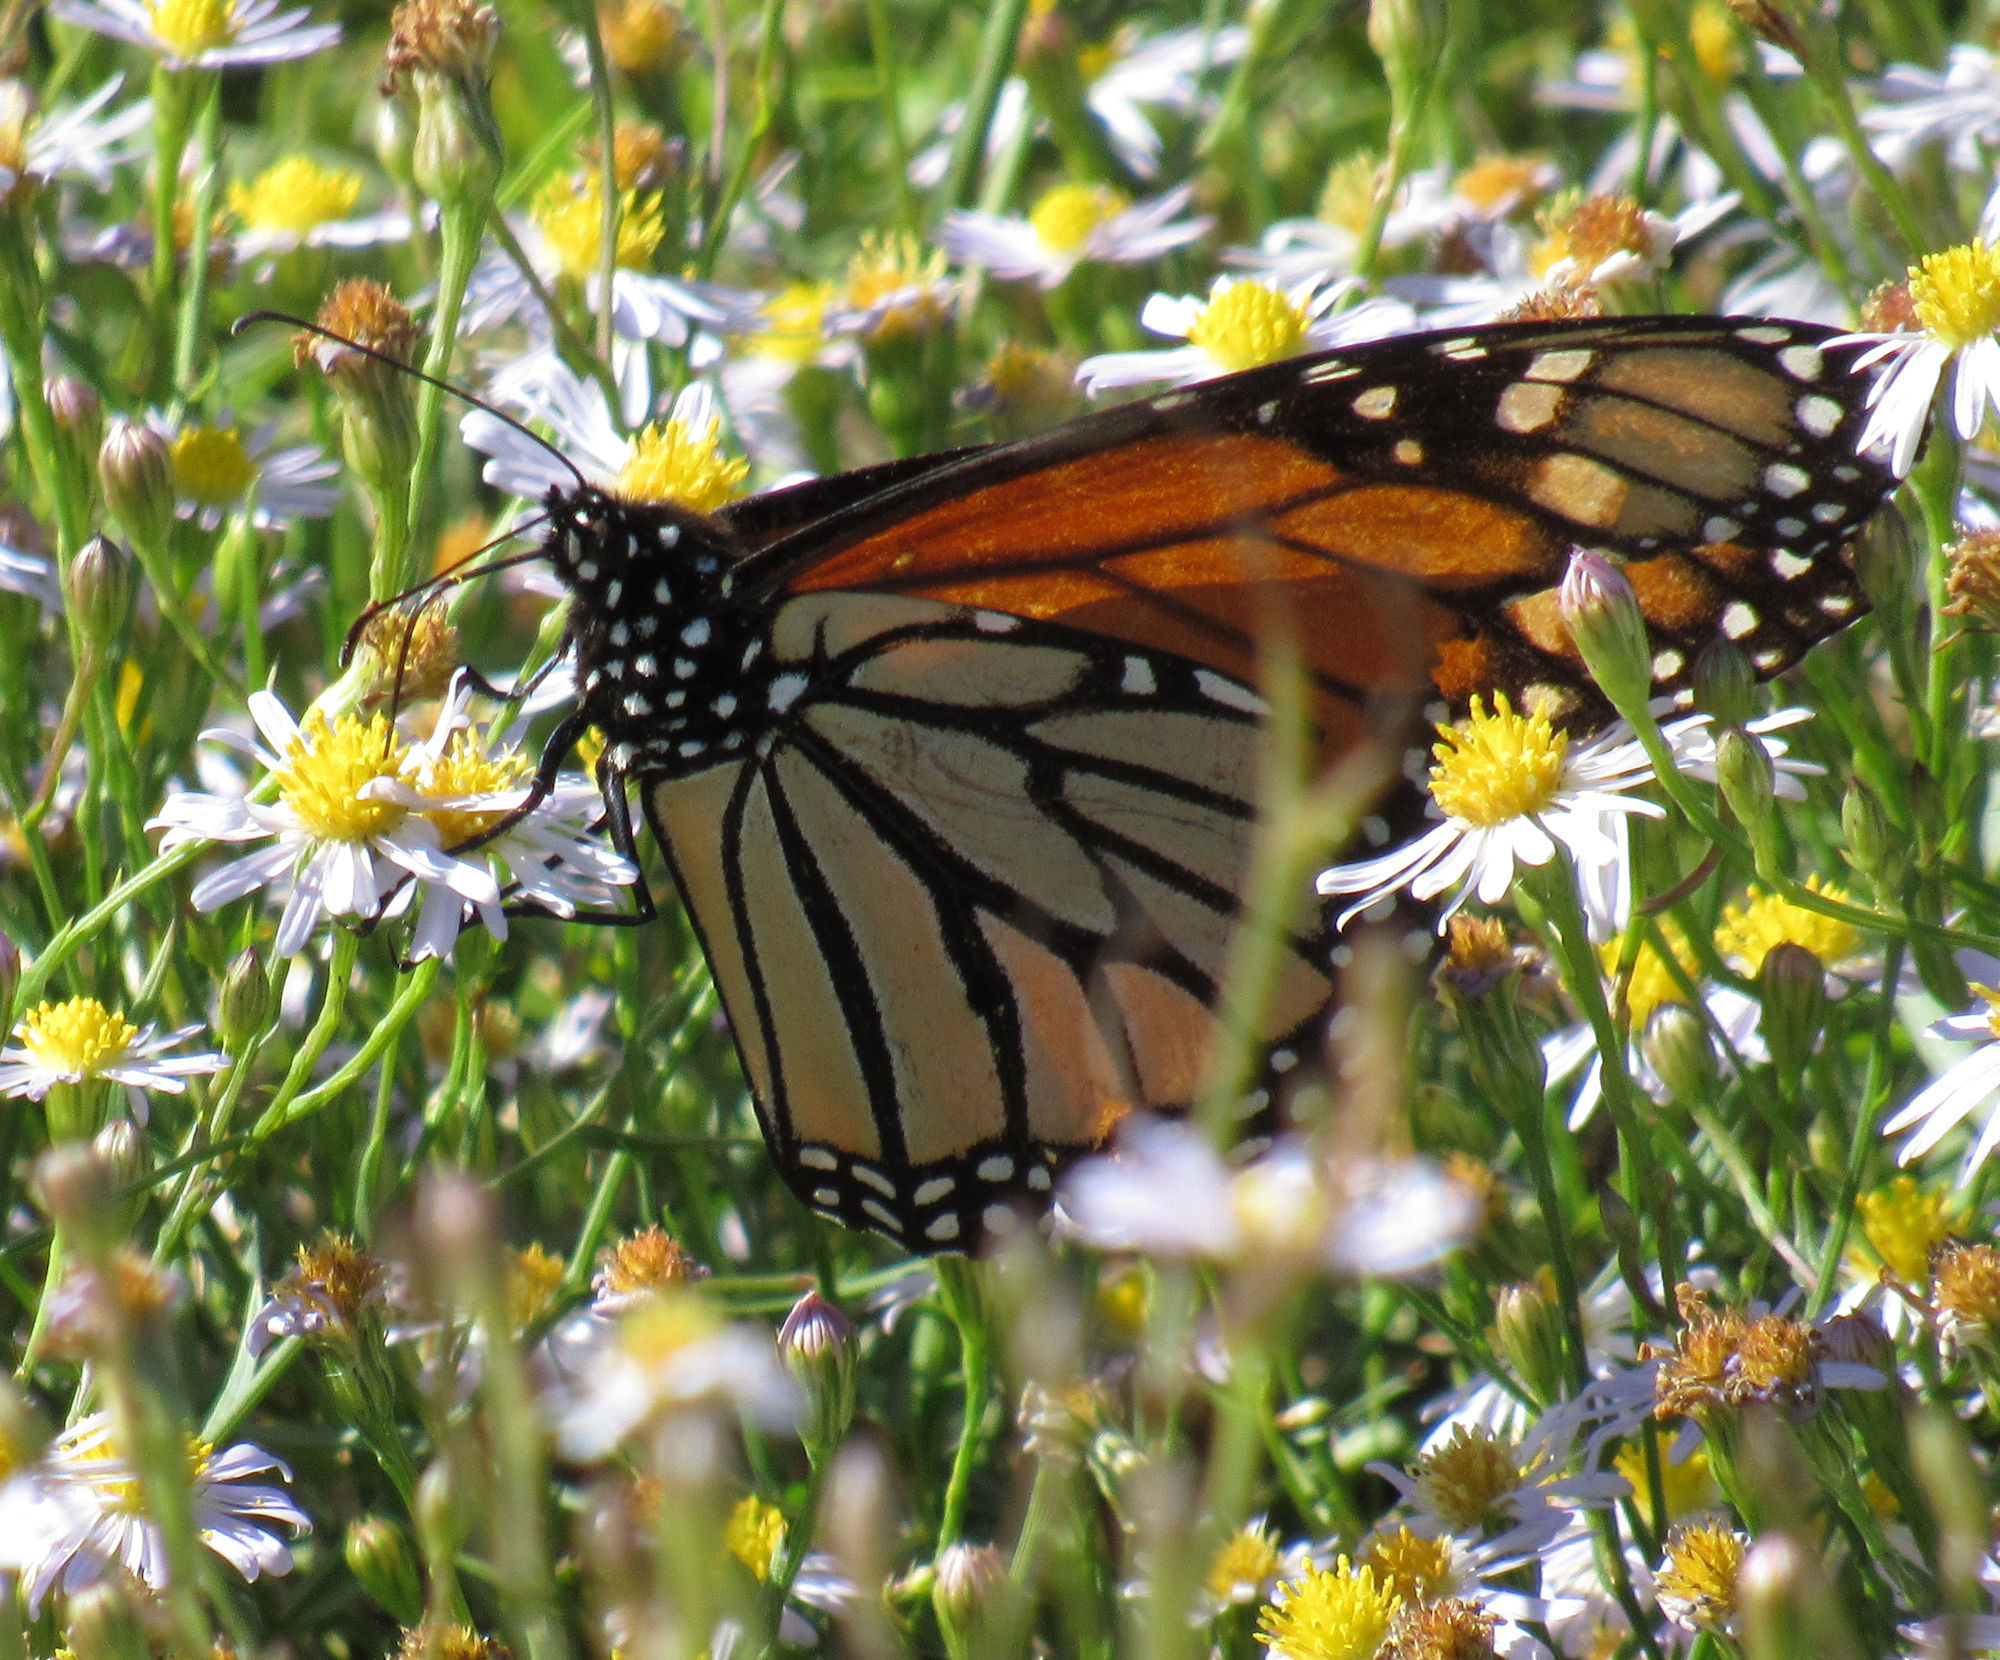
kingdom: Animalia
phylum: Arthropoda
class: Insecta
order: Lepidoptera
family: Nymphalidae
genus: Danaus
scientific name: Danaus plexippus
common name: Monarch
